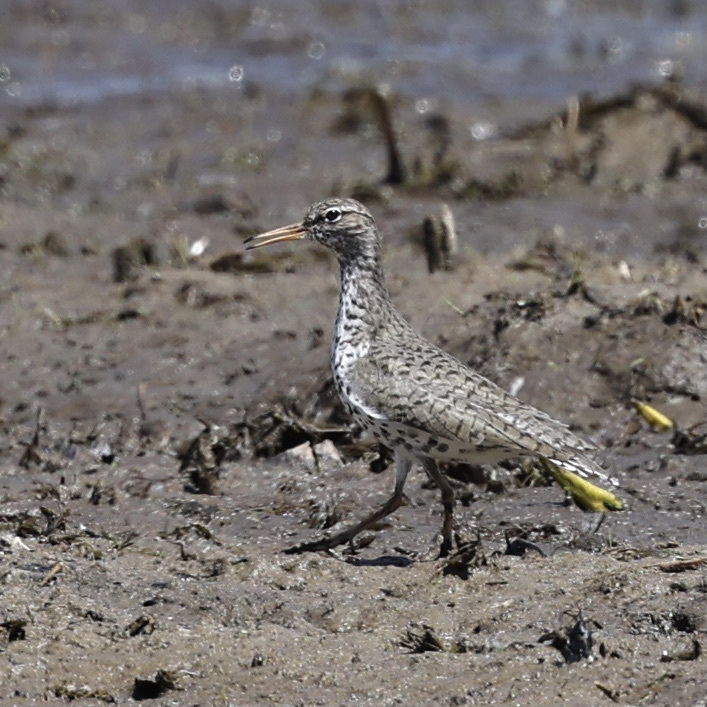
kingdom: Animalia
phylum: Chordata
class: Aves
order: Charadriiformes
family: Scolopacidae
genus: Actitis
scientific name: Actitis macularius
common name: Spotted sandpiper
